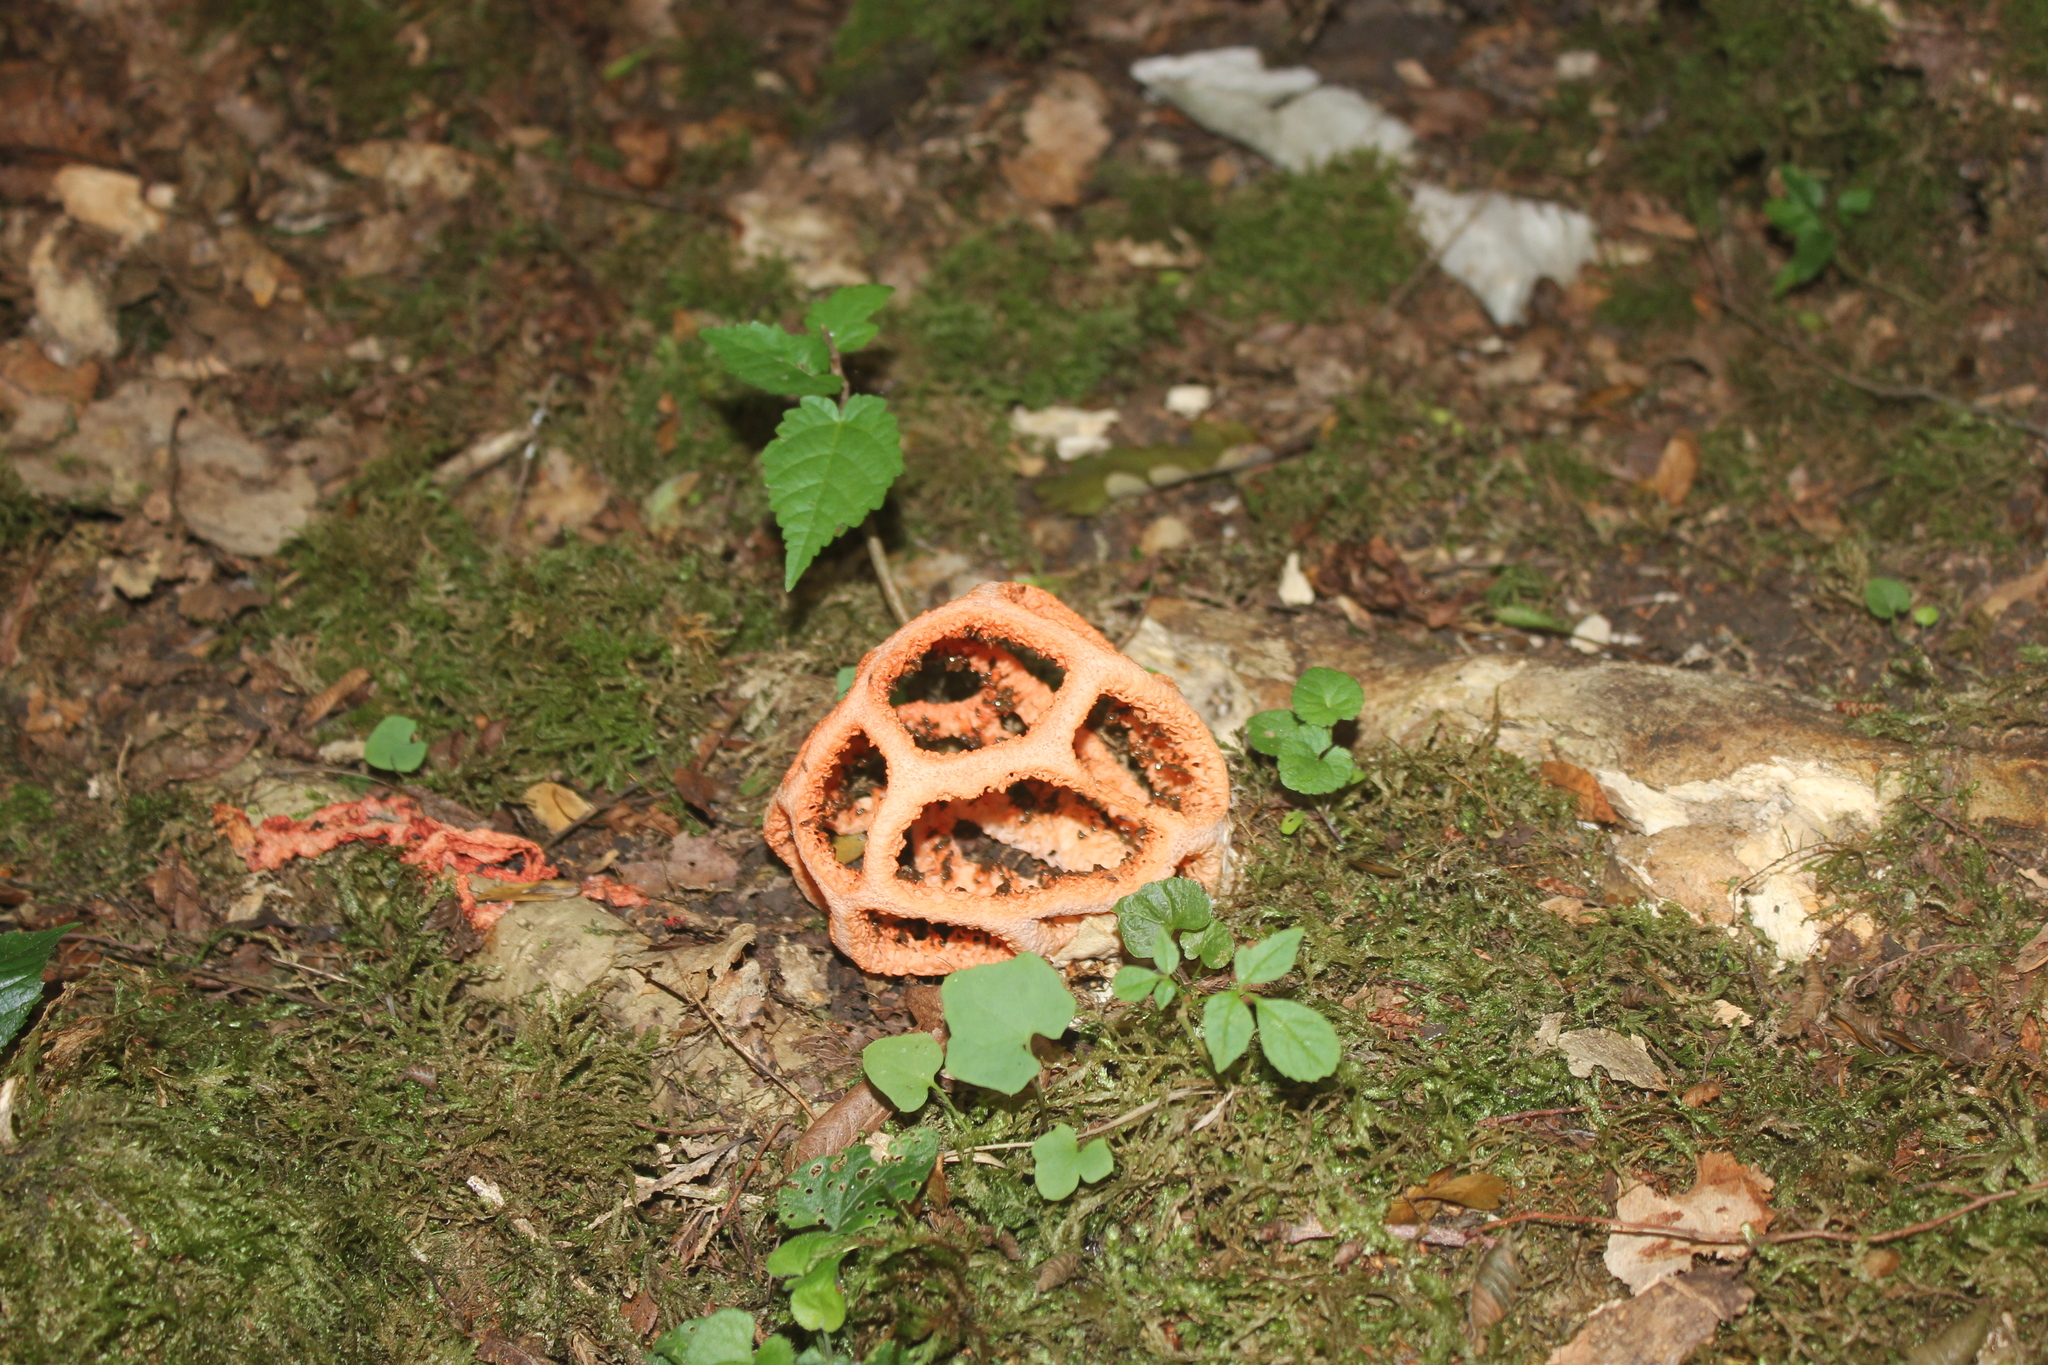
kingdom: Fungi
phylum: Basidiomycota
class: Agaricomycetes
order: Phallales
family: Phallaceae
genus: Clathrus
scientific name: Clathrus ruber
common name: Red cage
